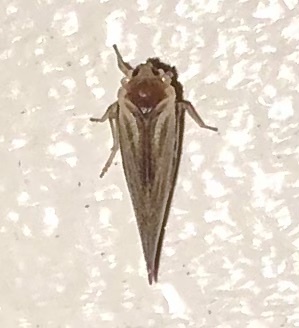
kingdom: Animalia
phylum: Arthropoda
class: Insecta
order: Hemiptera
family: Derbidae
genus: Omolicna
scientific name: Omolicna uhleri
